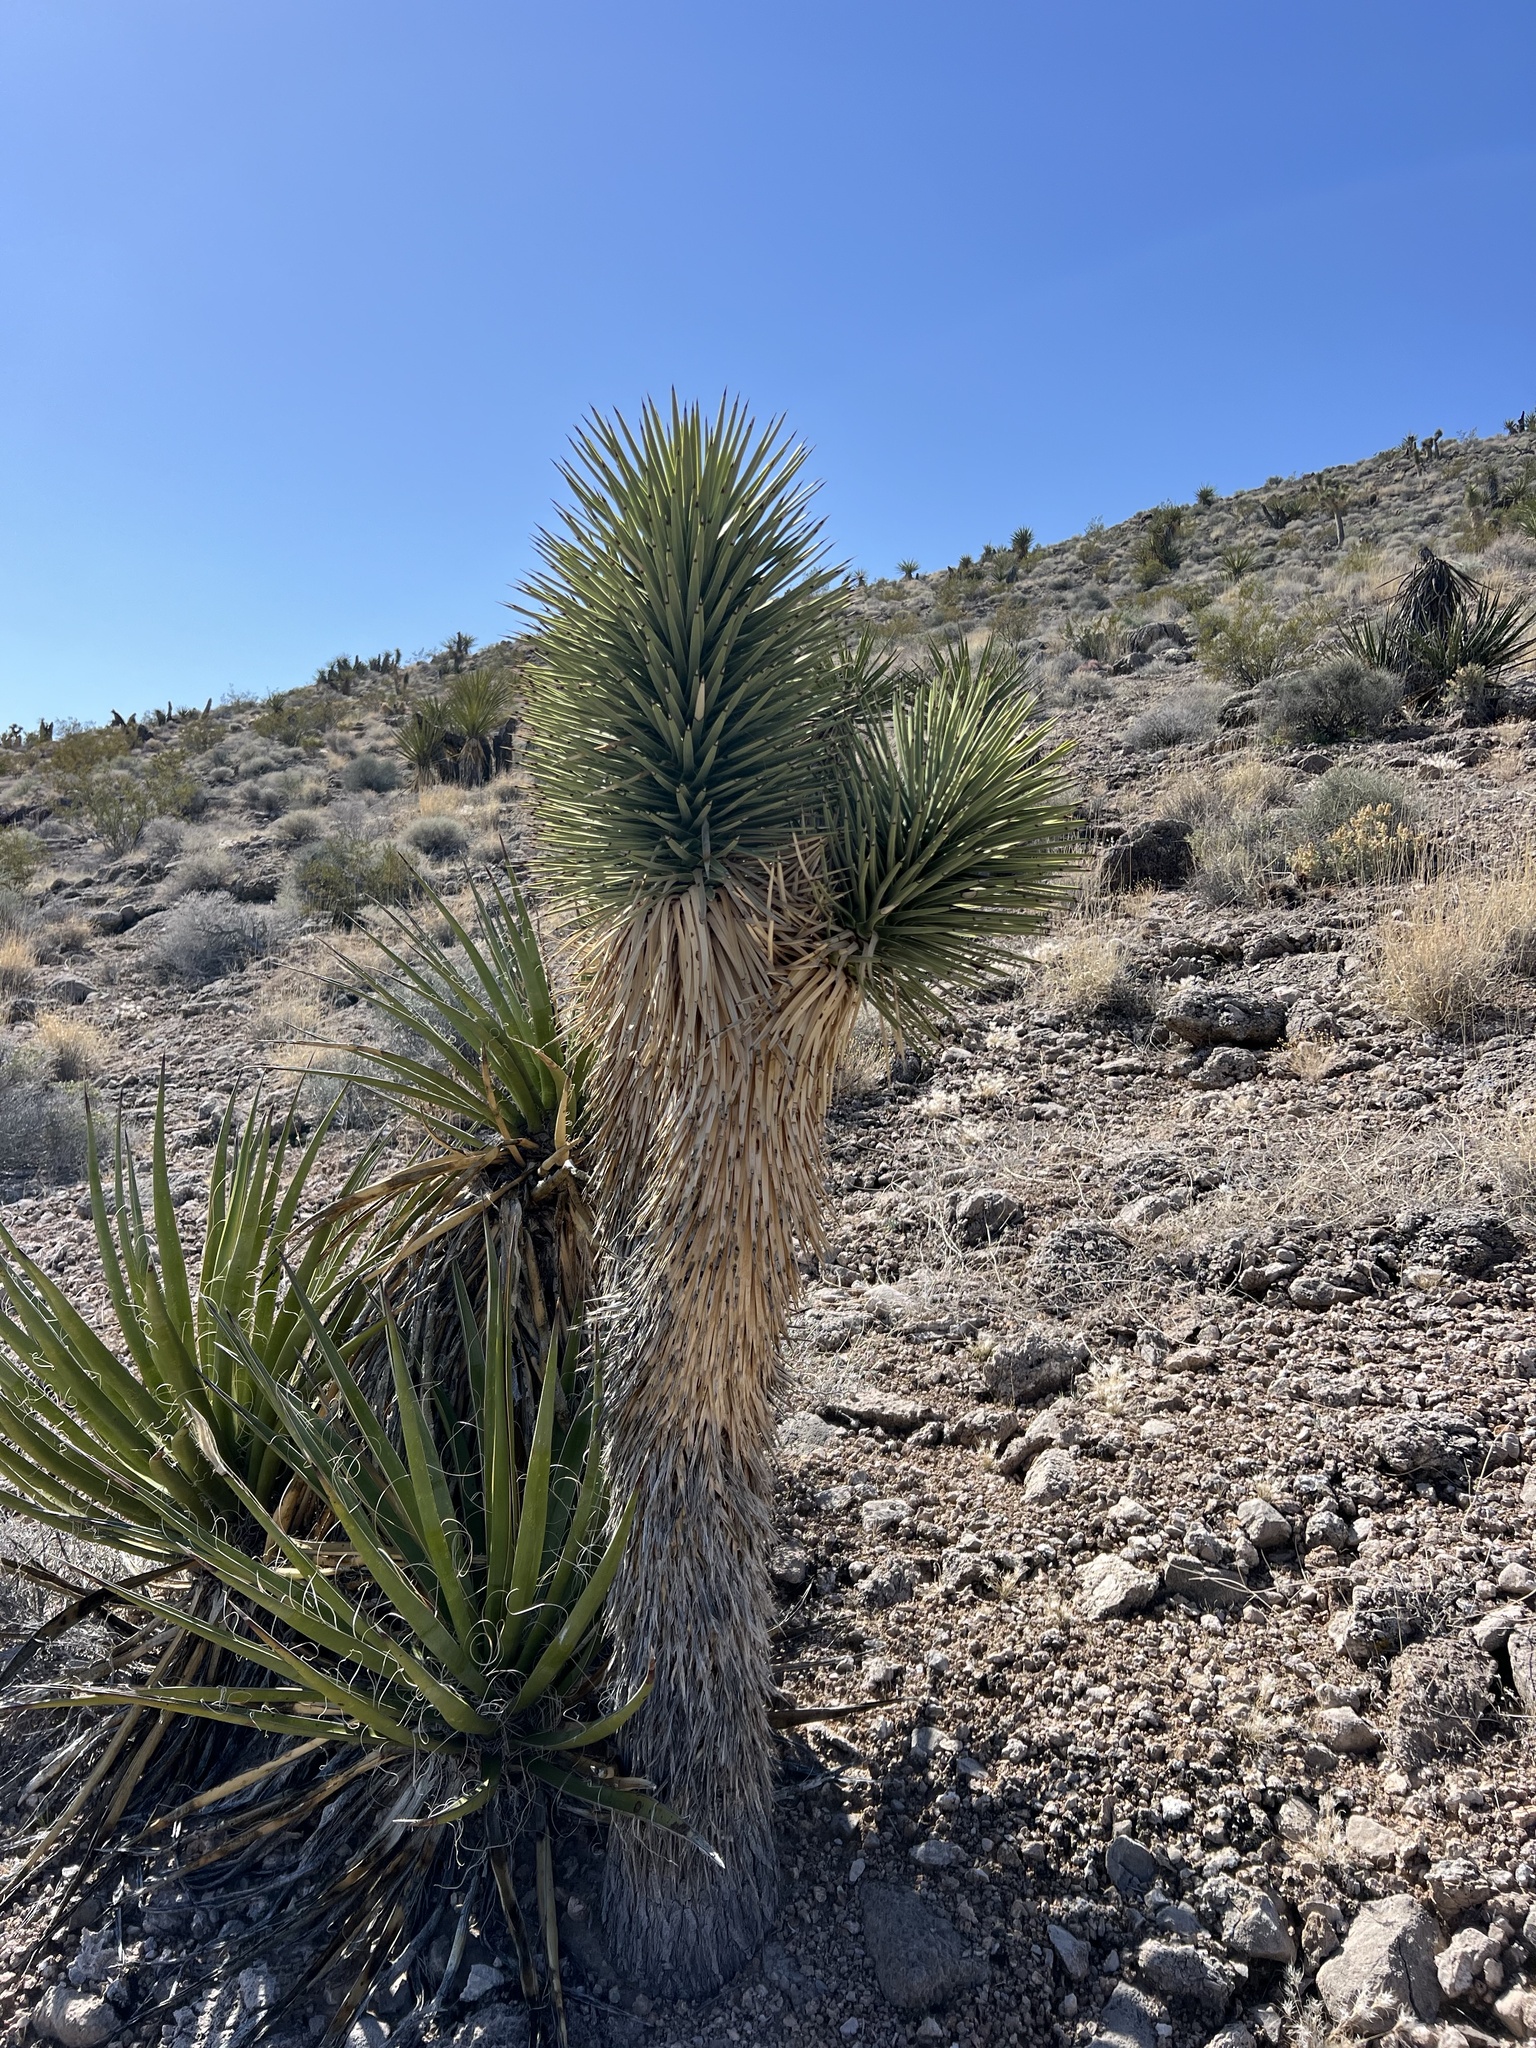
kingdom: Plantae
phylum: Tracheophyta
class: Liliopsida
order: Asparagales
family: Asparagaceae
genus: Yucca
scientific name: Yucca brevifolia
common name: Joshua tree
